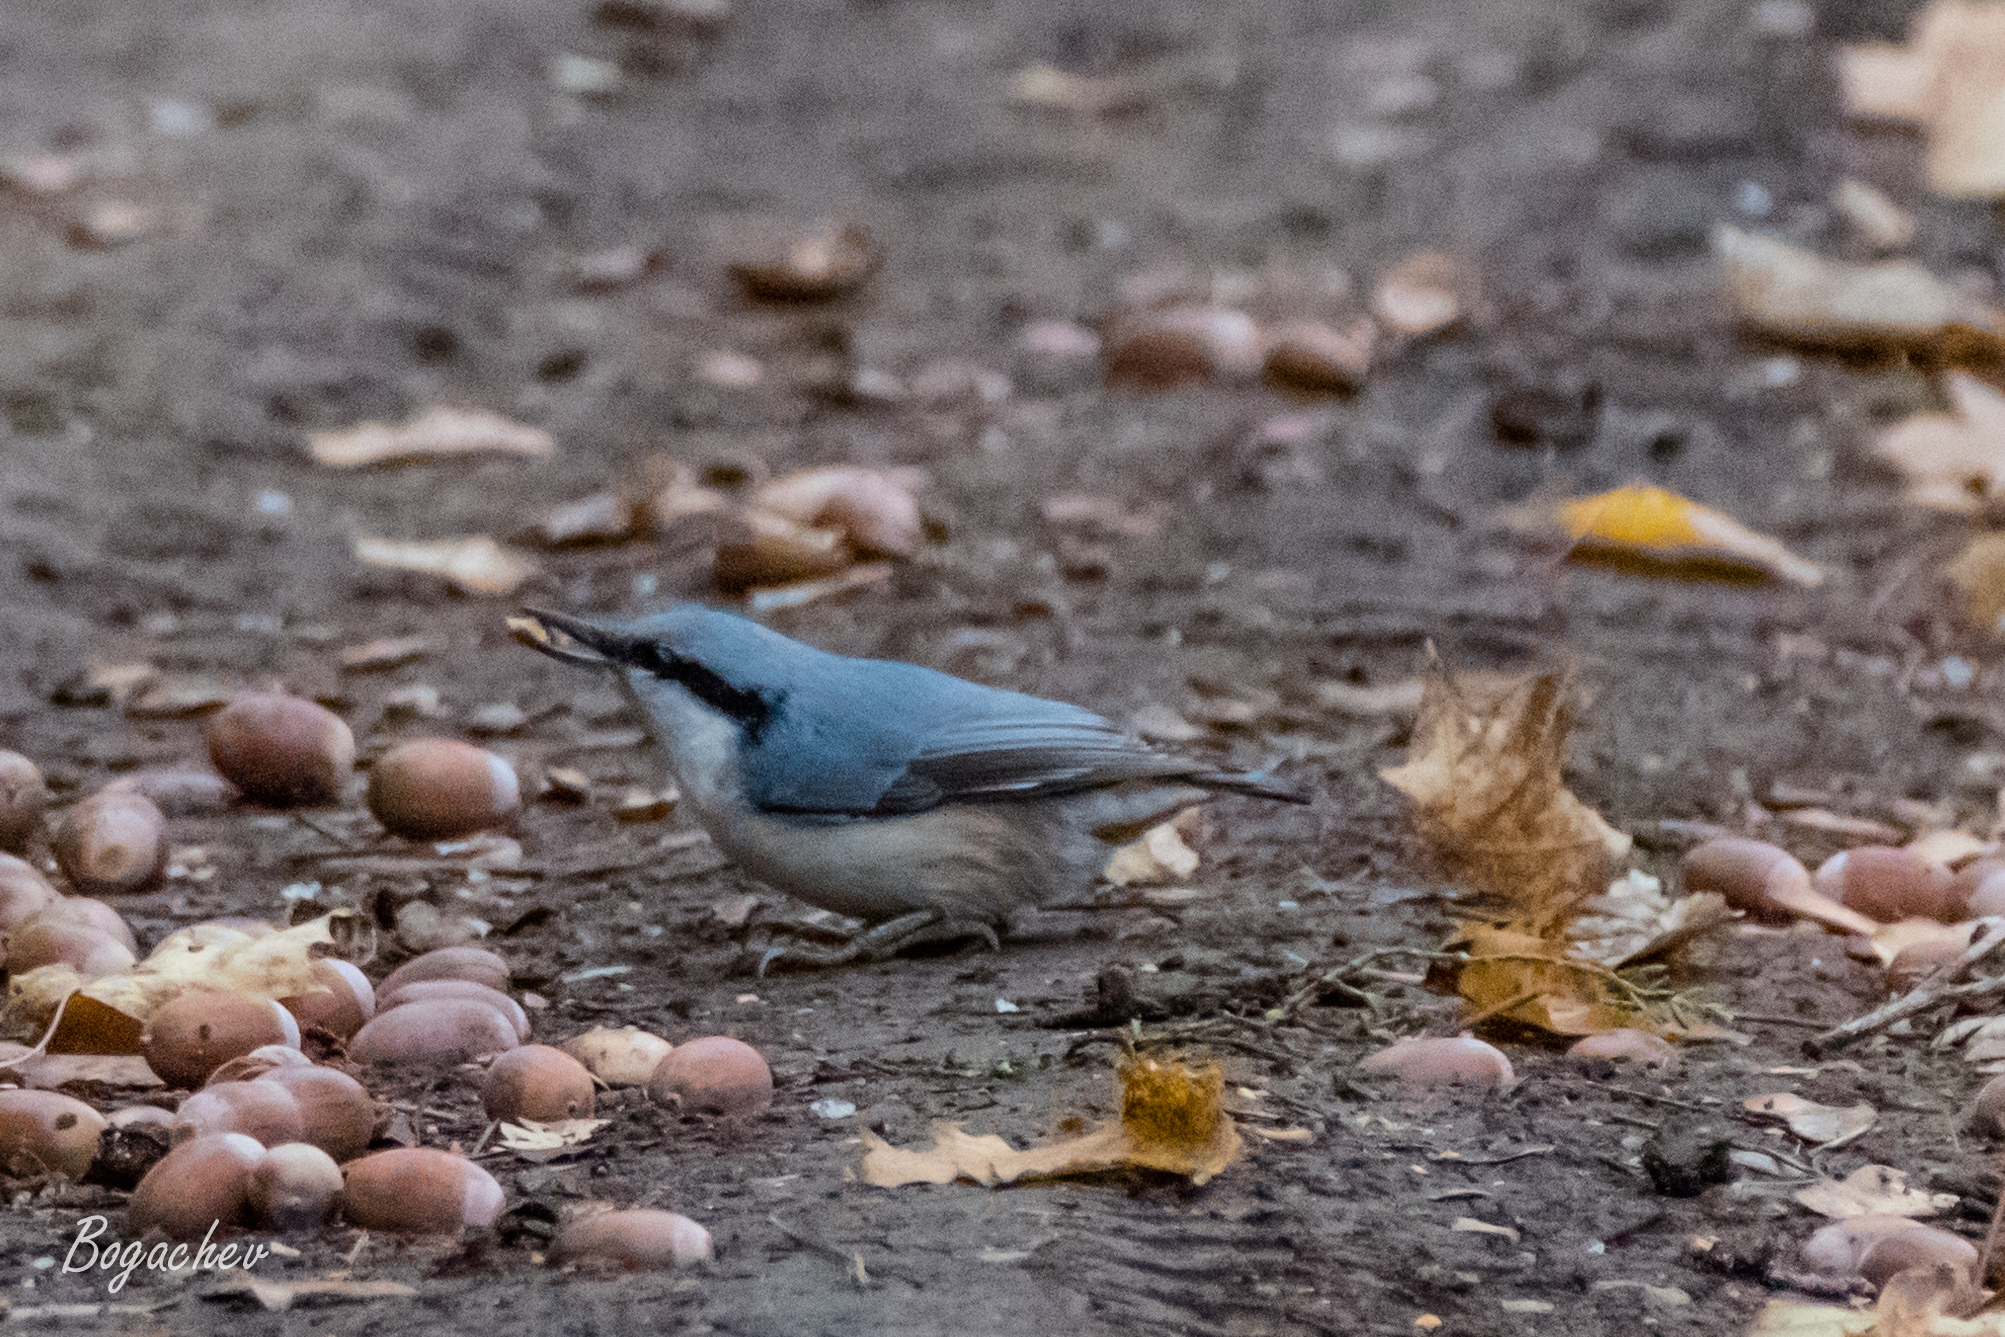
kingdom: Animalia
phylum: Chordata
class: Aves
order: Passeriformes
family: Sittidae
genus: Sitta
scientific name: Sitta europaea
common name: Eurasian nuthatch
